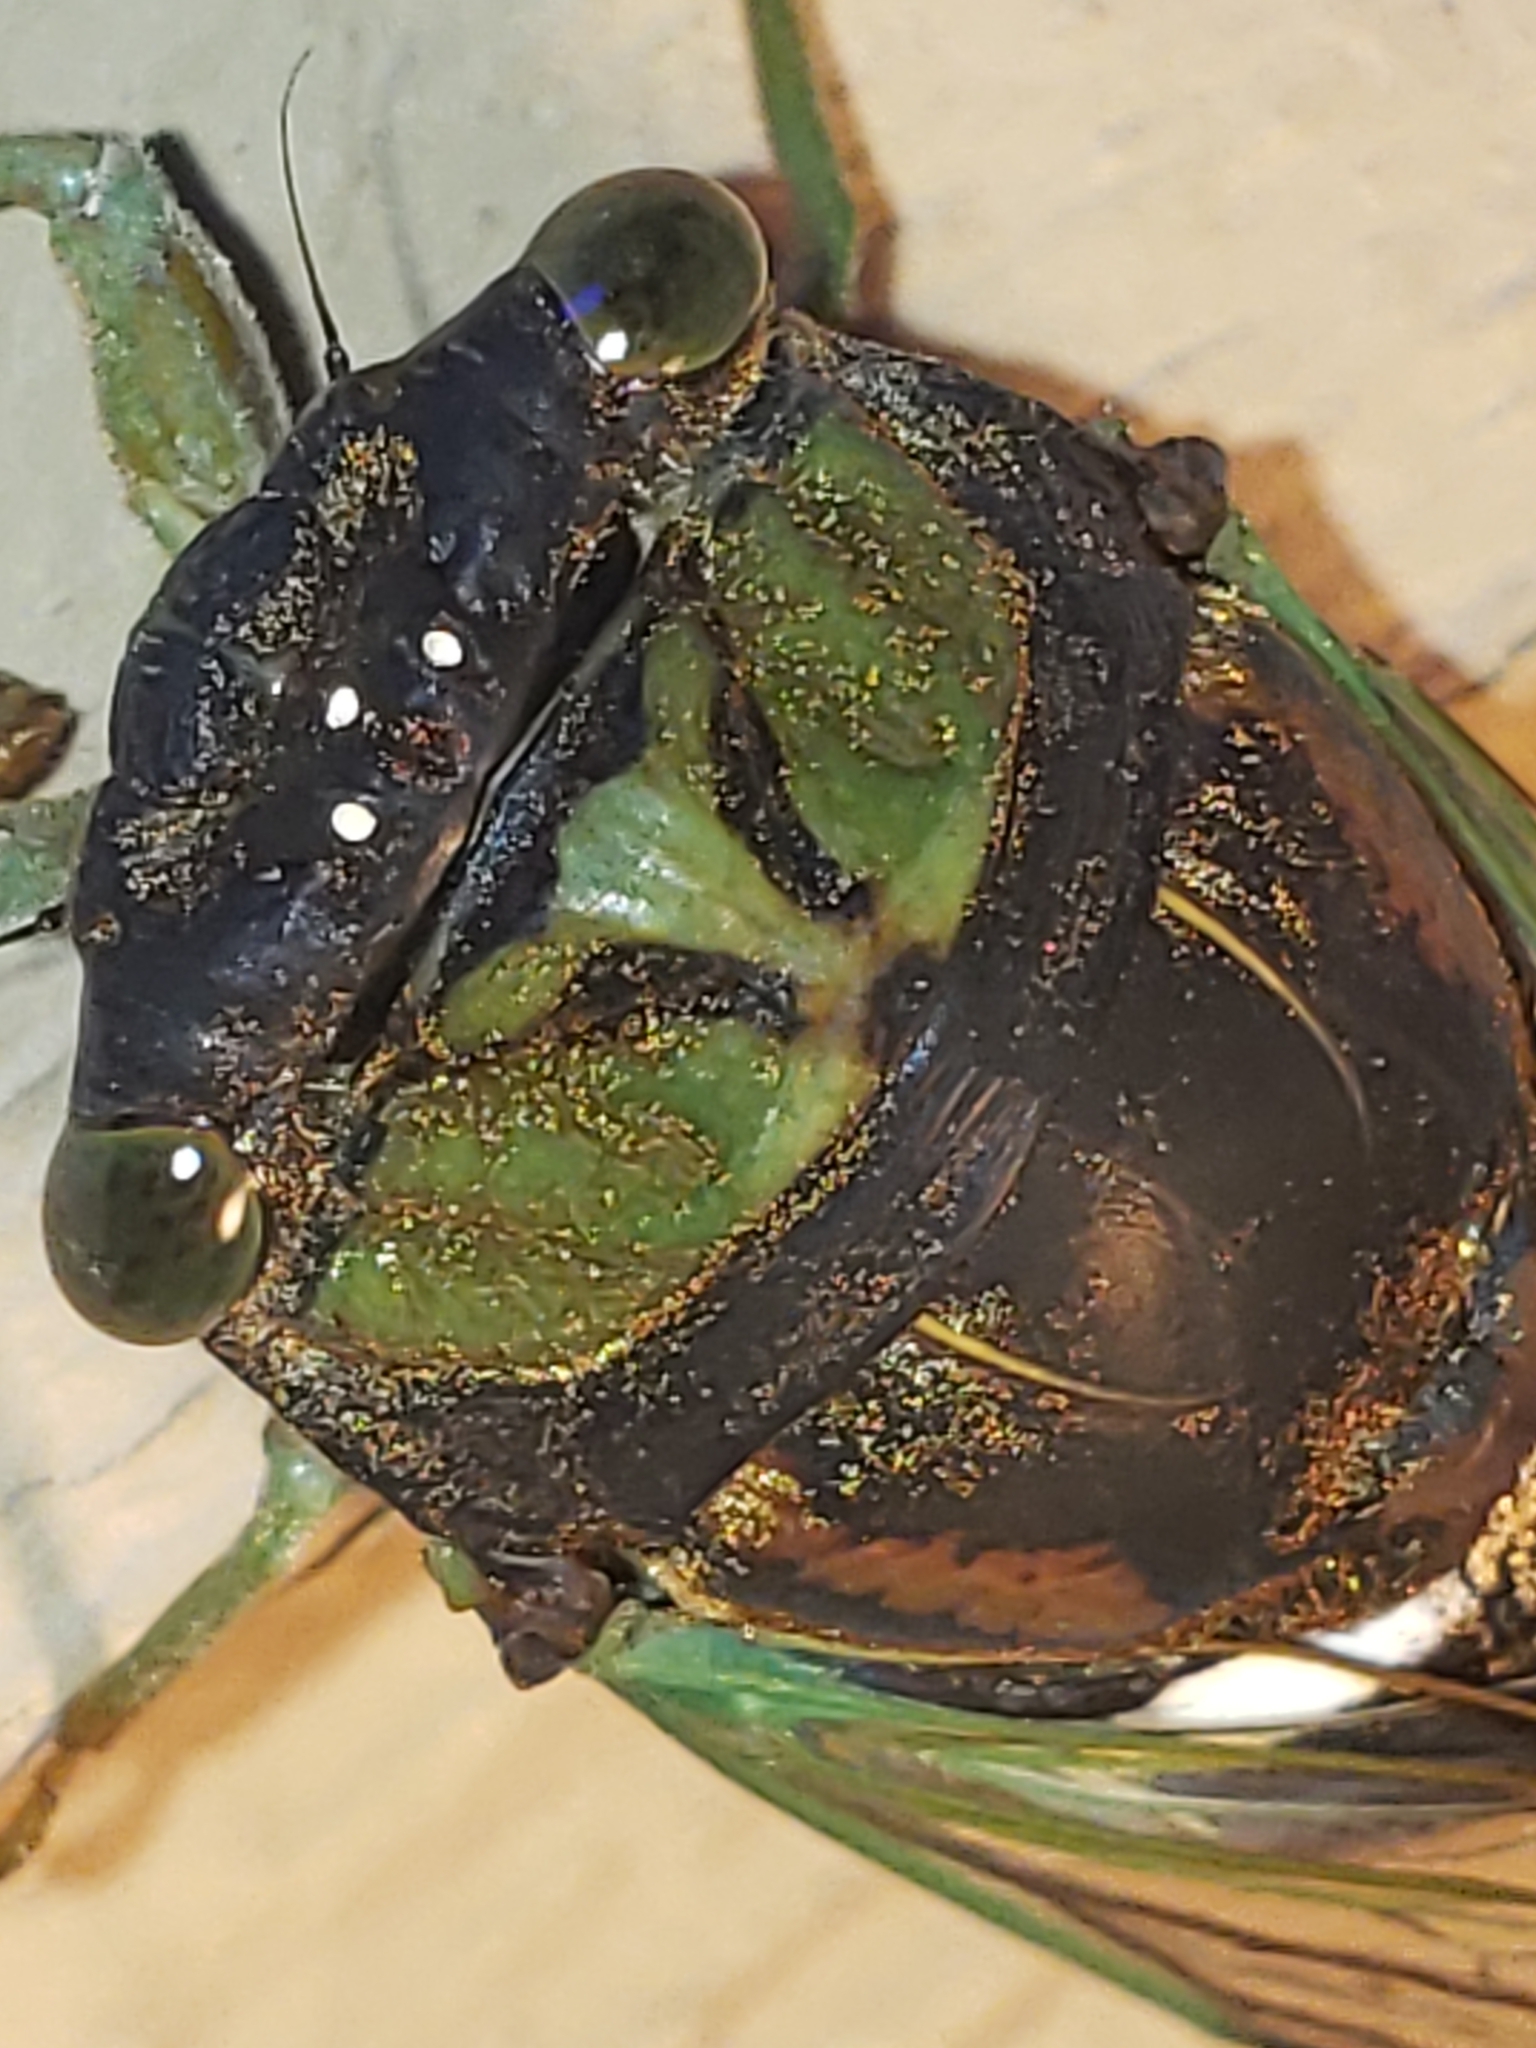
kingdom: Animalia
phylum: Arthropoda
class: Insecta
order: Hemiptera
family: Cicadidae
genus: Neotibicen
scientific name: Neotibicen tibicen
